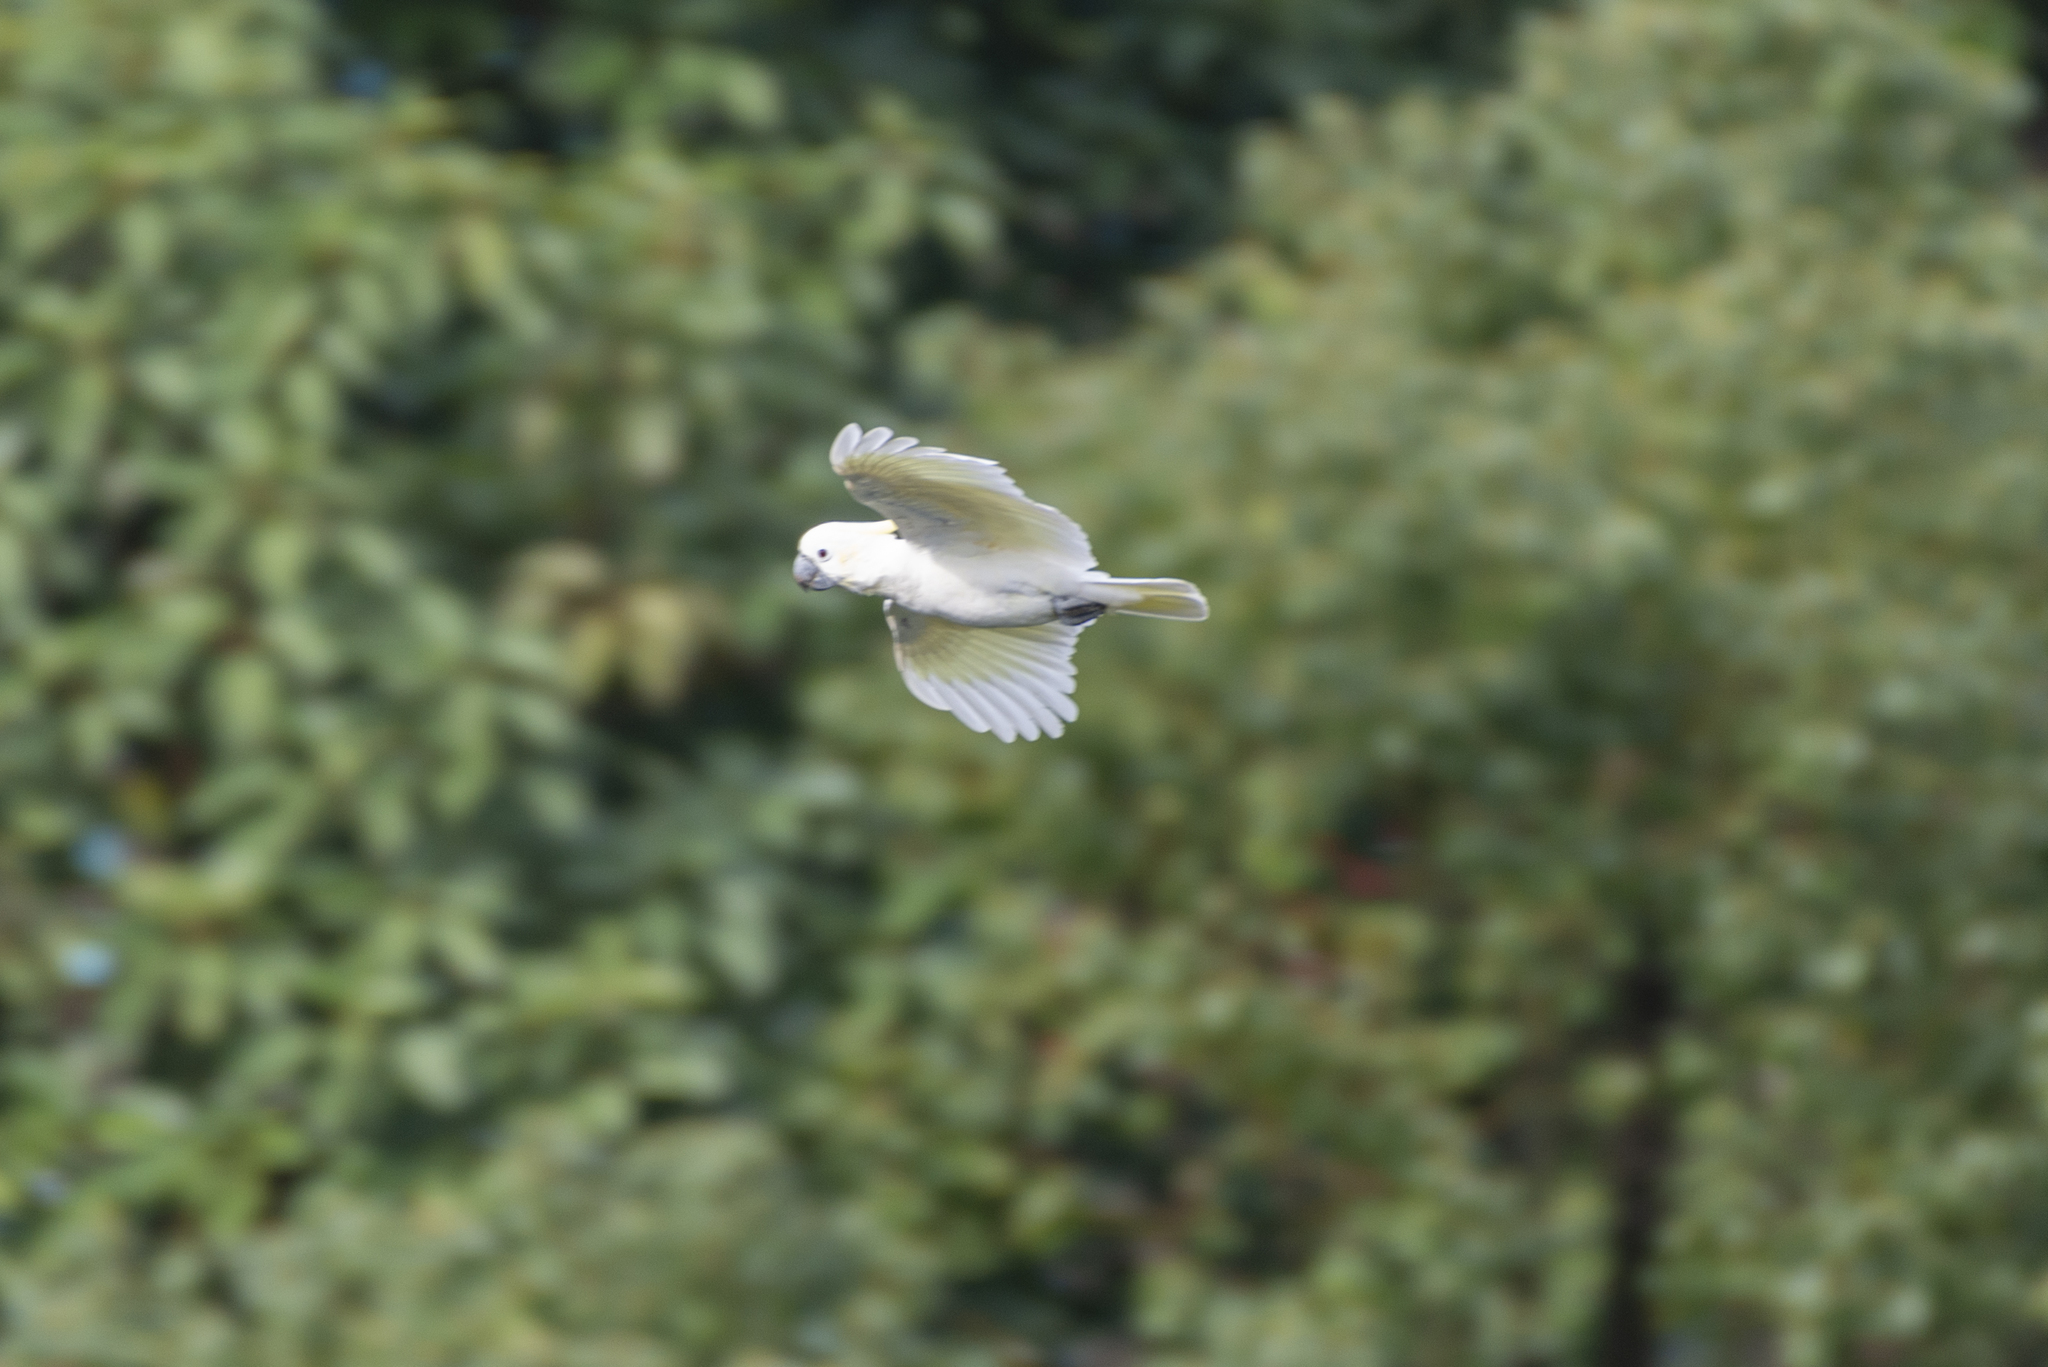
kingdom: Animalia
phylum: Chordata
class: Aves
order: Psittaciformes
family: Psittacidae
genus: Cacatua
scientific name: Cacatua sulphurea
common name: Yellow-crested cockatoo
